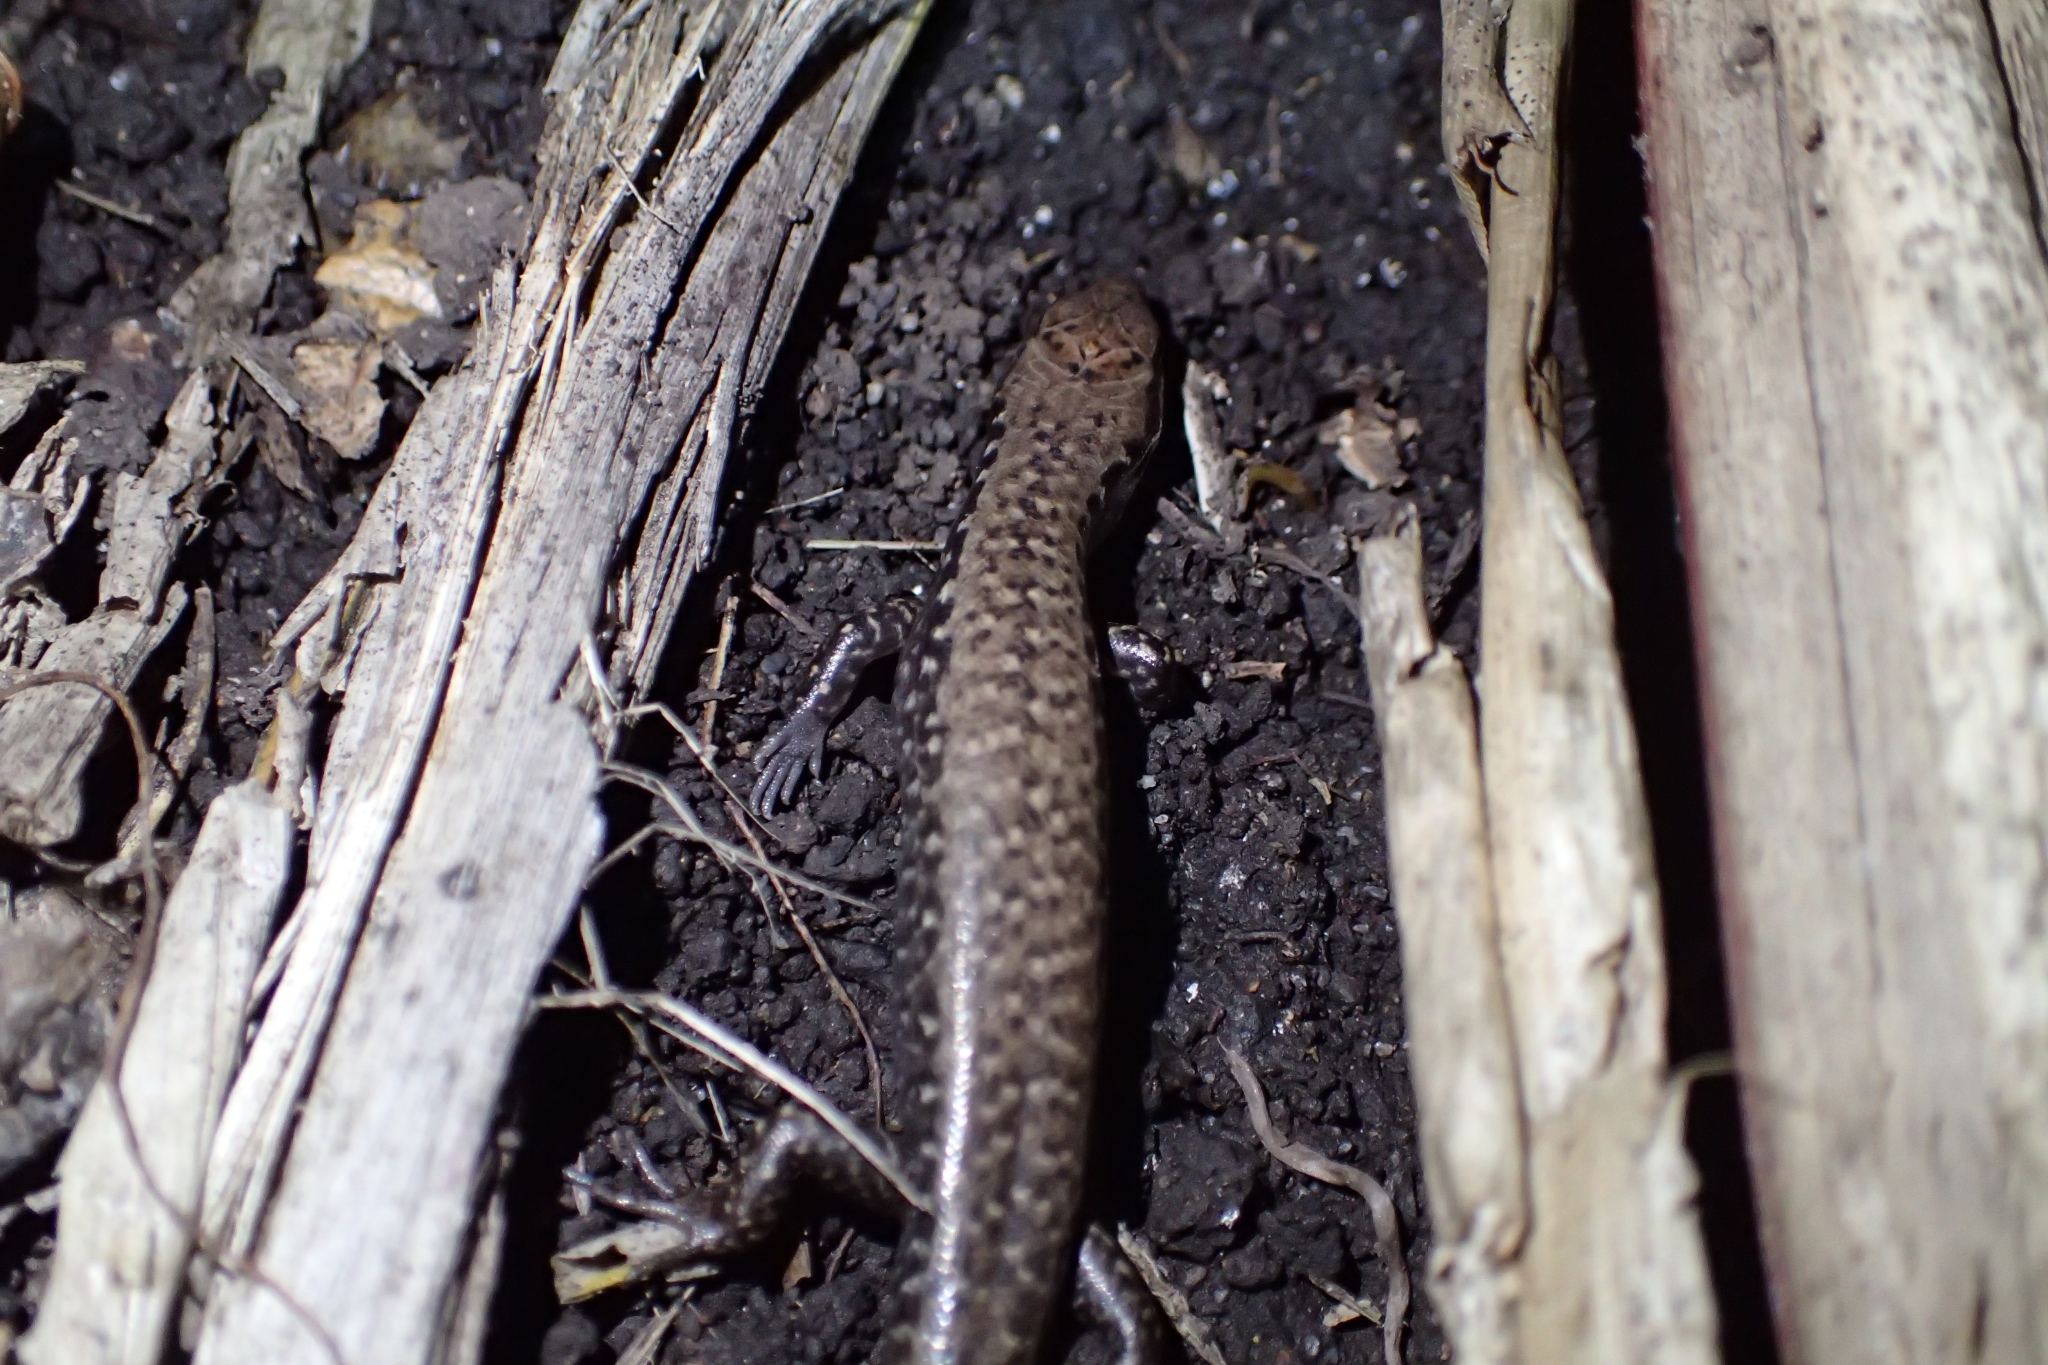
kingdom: Animalia
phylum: Chordata
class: Squamata
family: Scincidae
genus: Oligosoma
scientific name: Oligosoma townsi
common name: Towns’ skink
